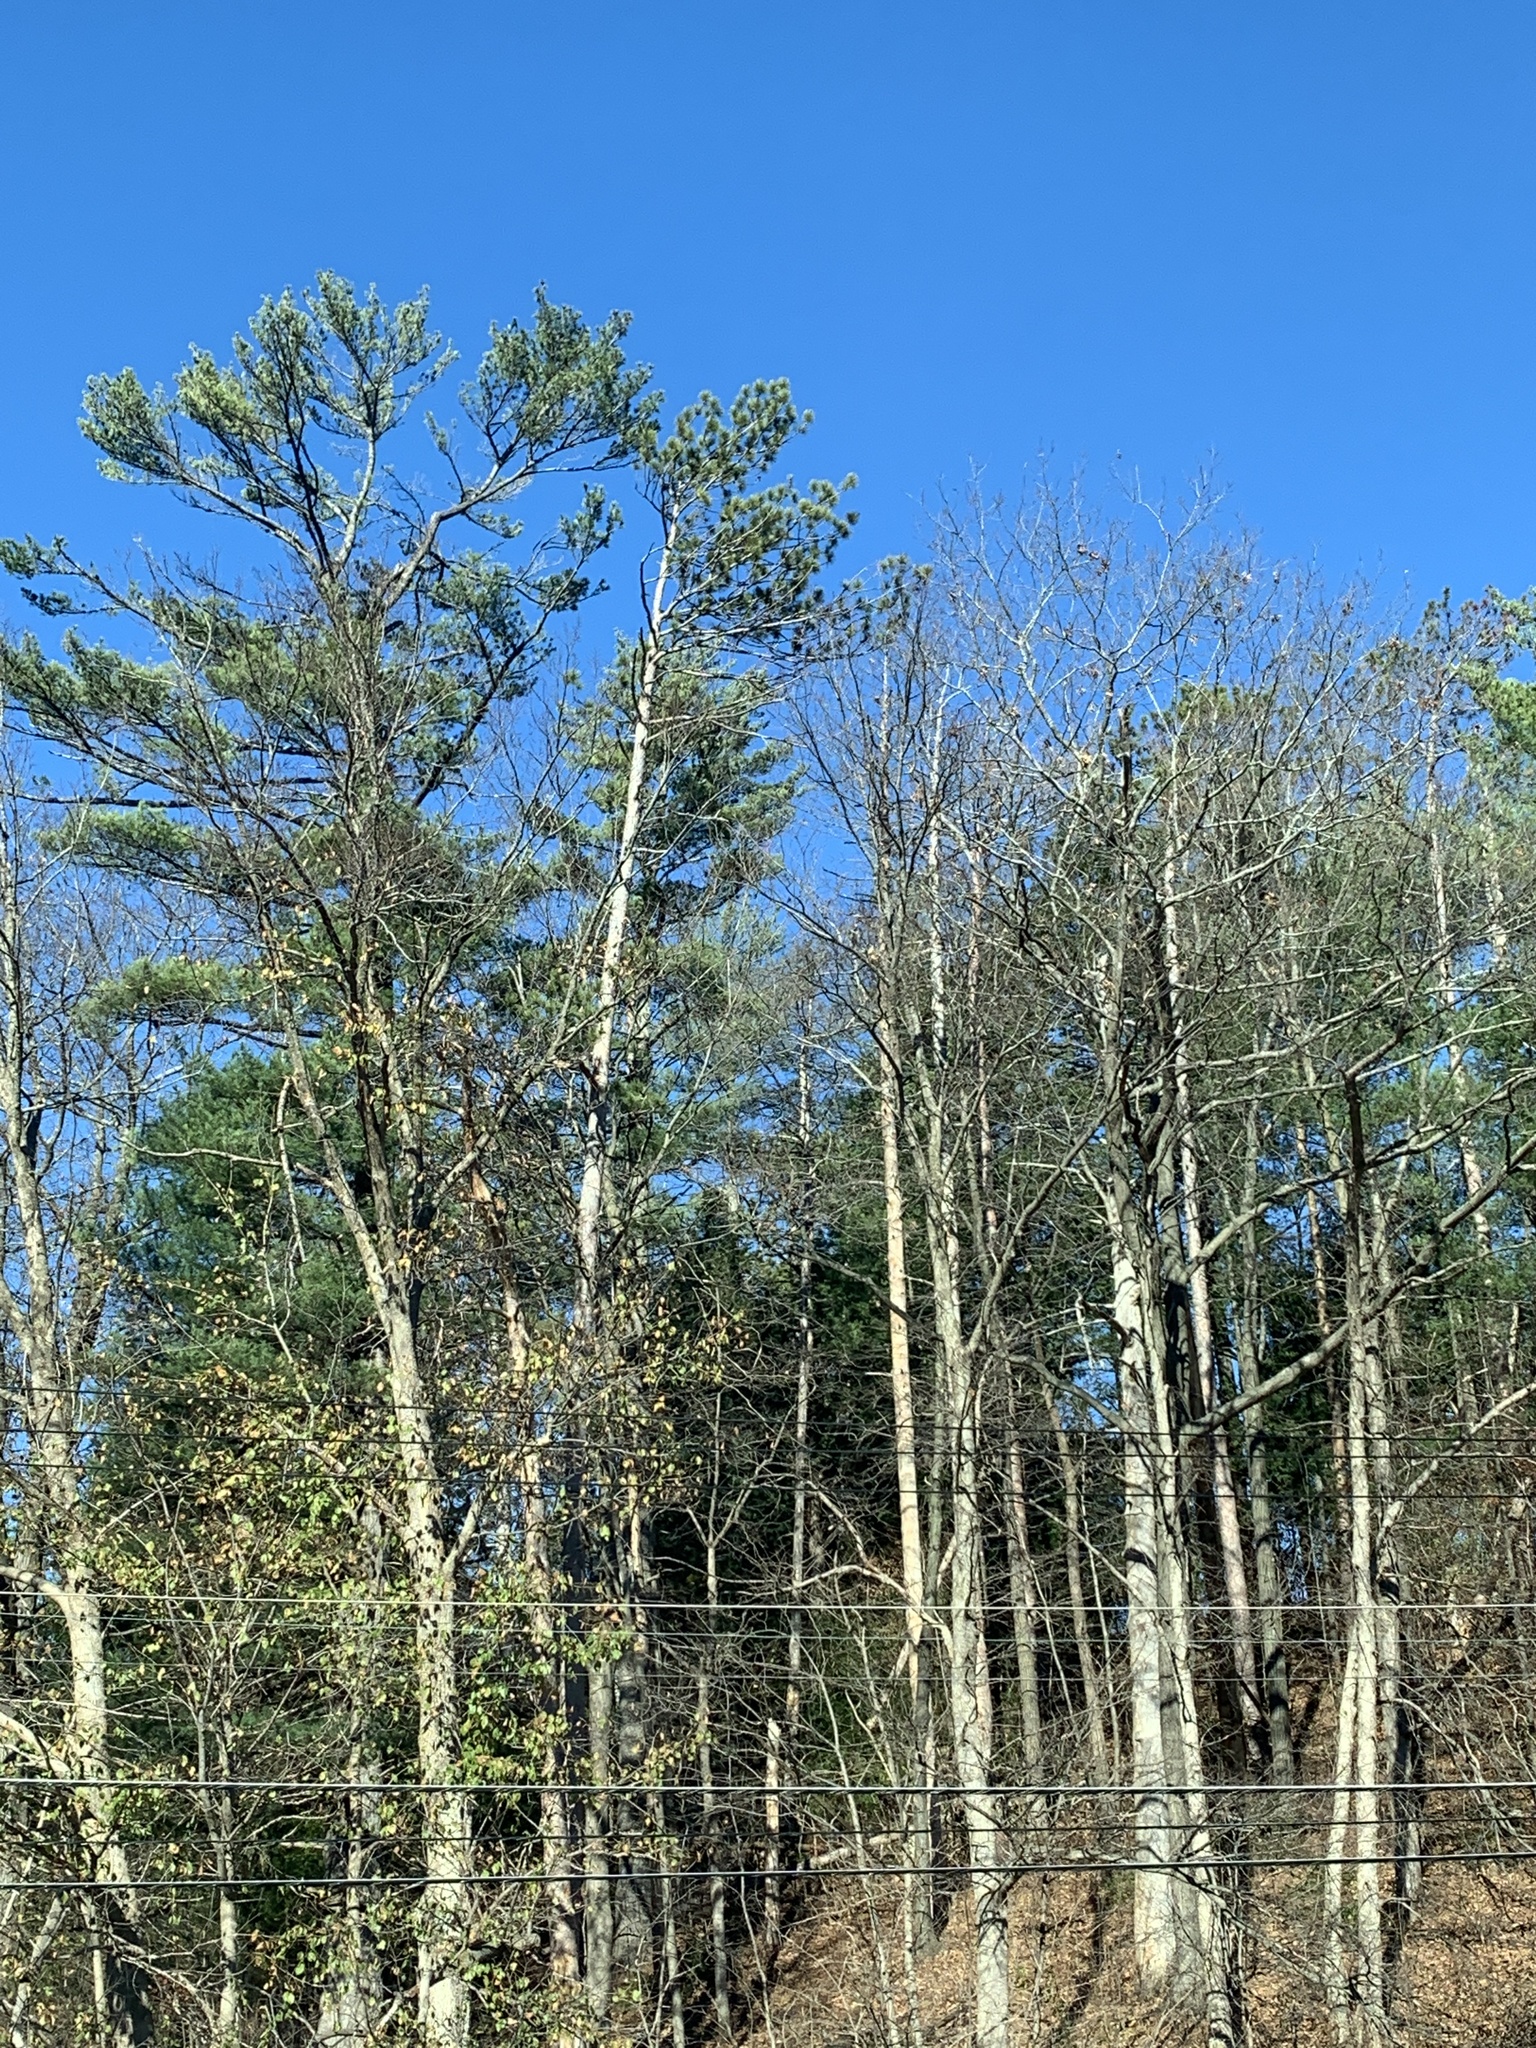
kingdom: Plantae
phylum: Tracheophyta
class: Pinopsida
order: Pinales
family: Pinaceae
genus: Pinus
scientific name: Pinus resinosa
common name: Norway pine
